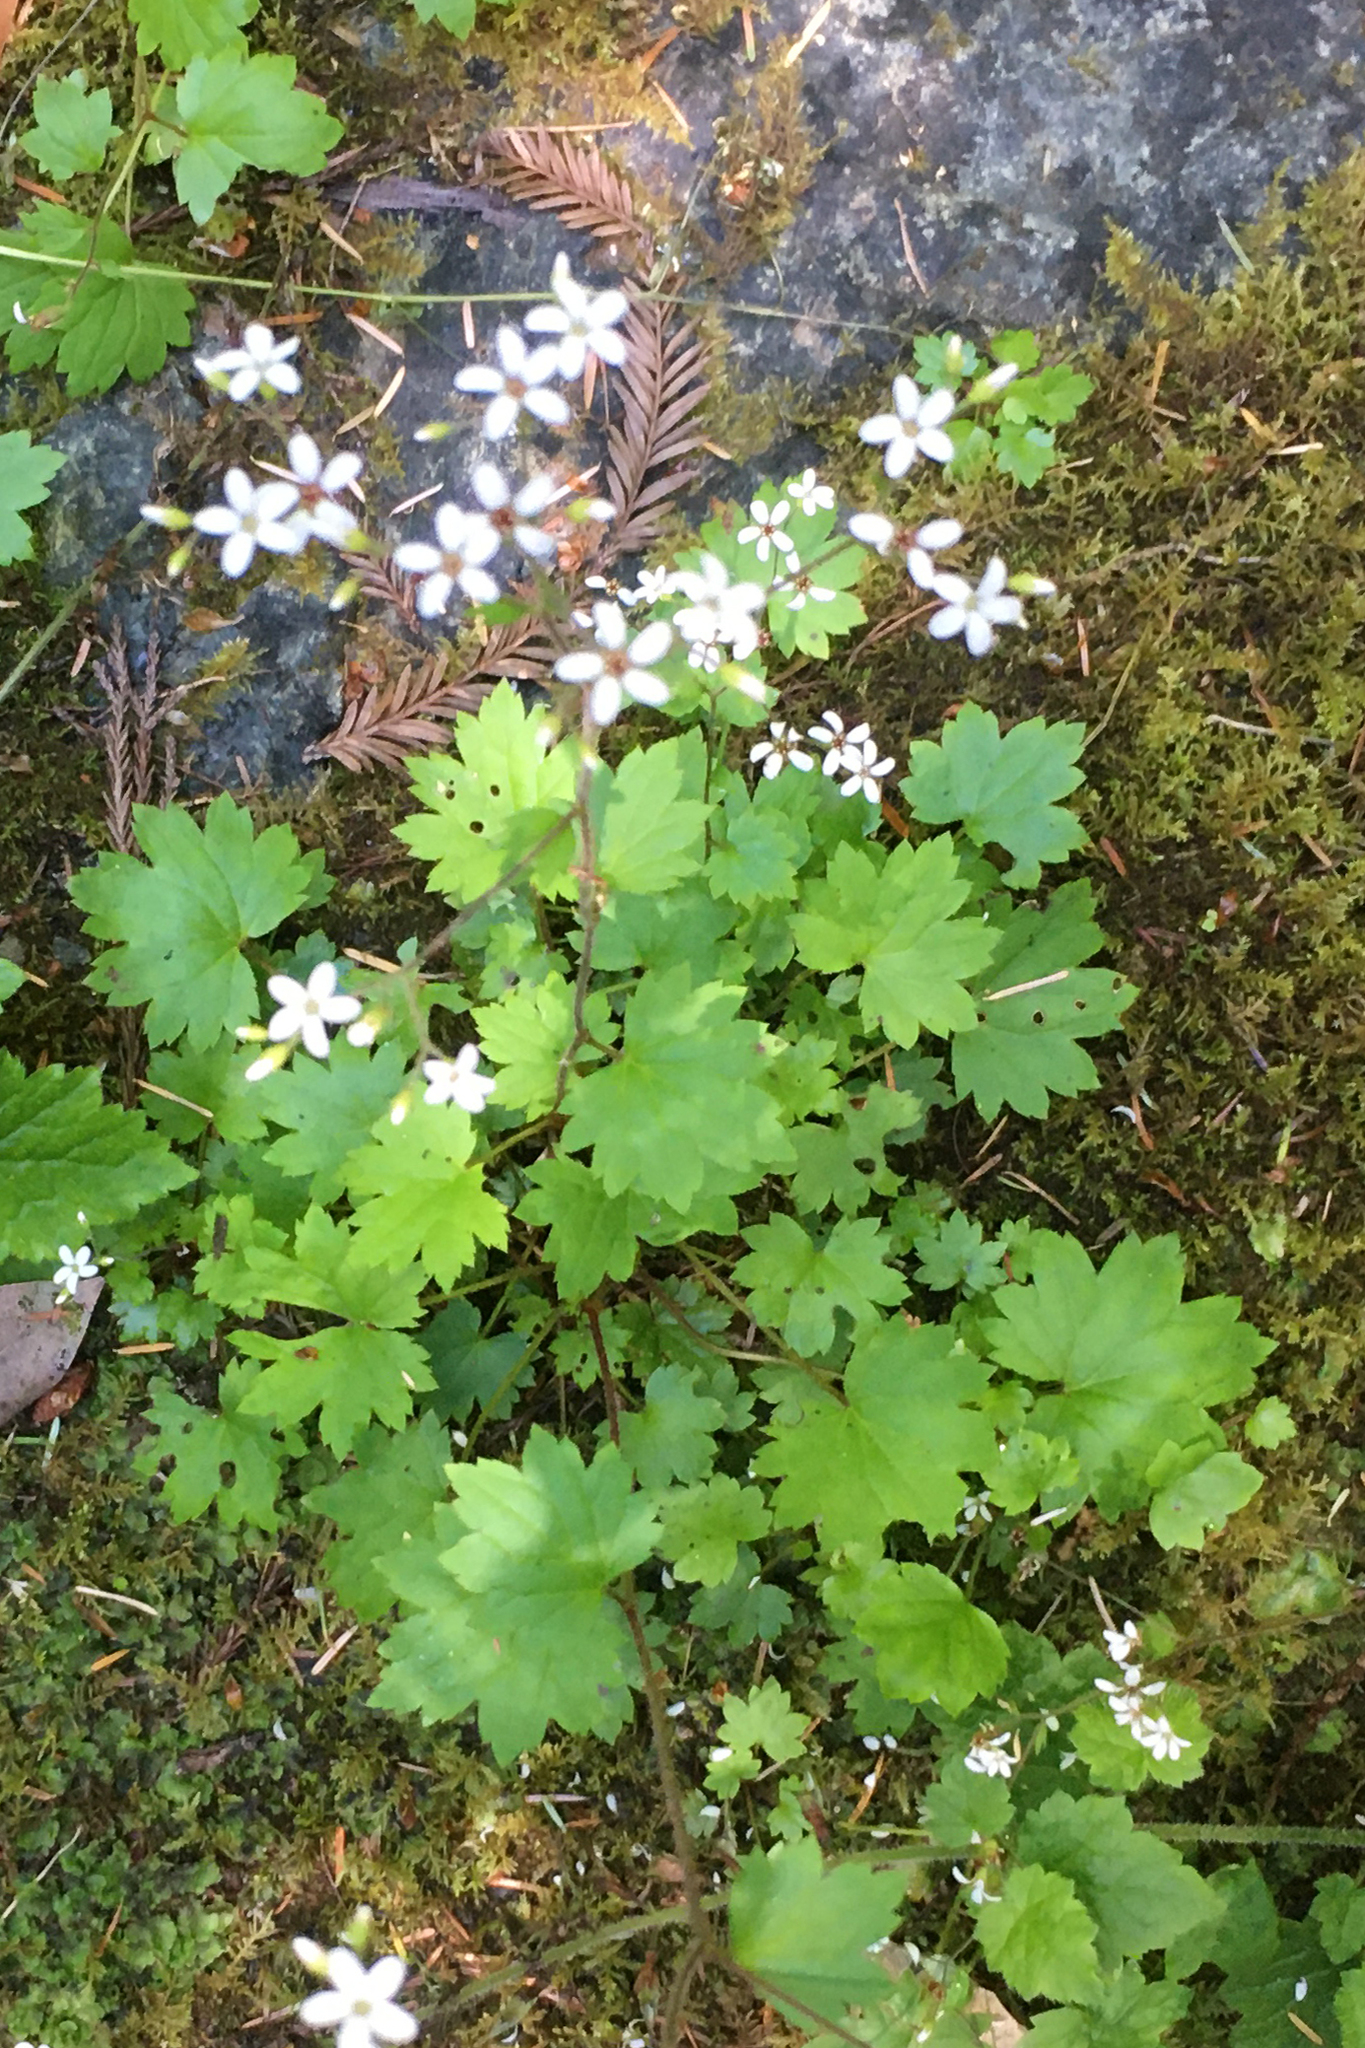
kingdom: Plantae
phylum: Tracheophyta
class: Magnoliopsida
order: Saxifragales
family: Saxifragaceae
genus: Boykinia
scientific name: Boykinia occidentalis
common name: Coast boykinia
